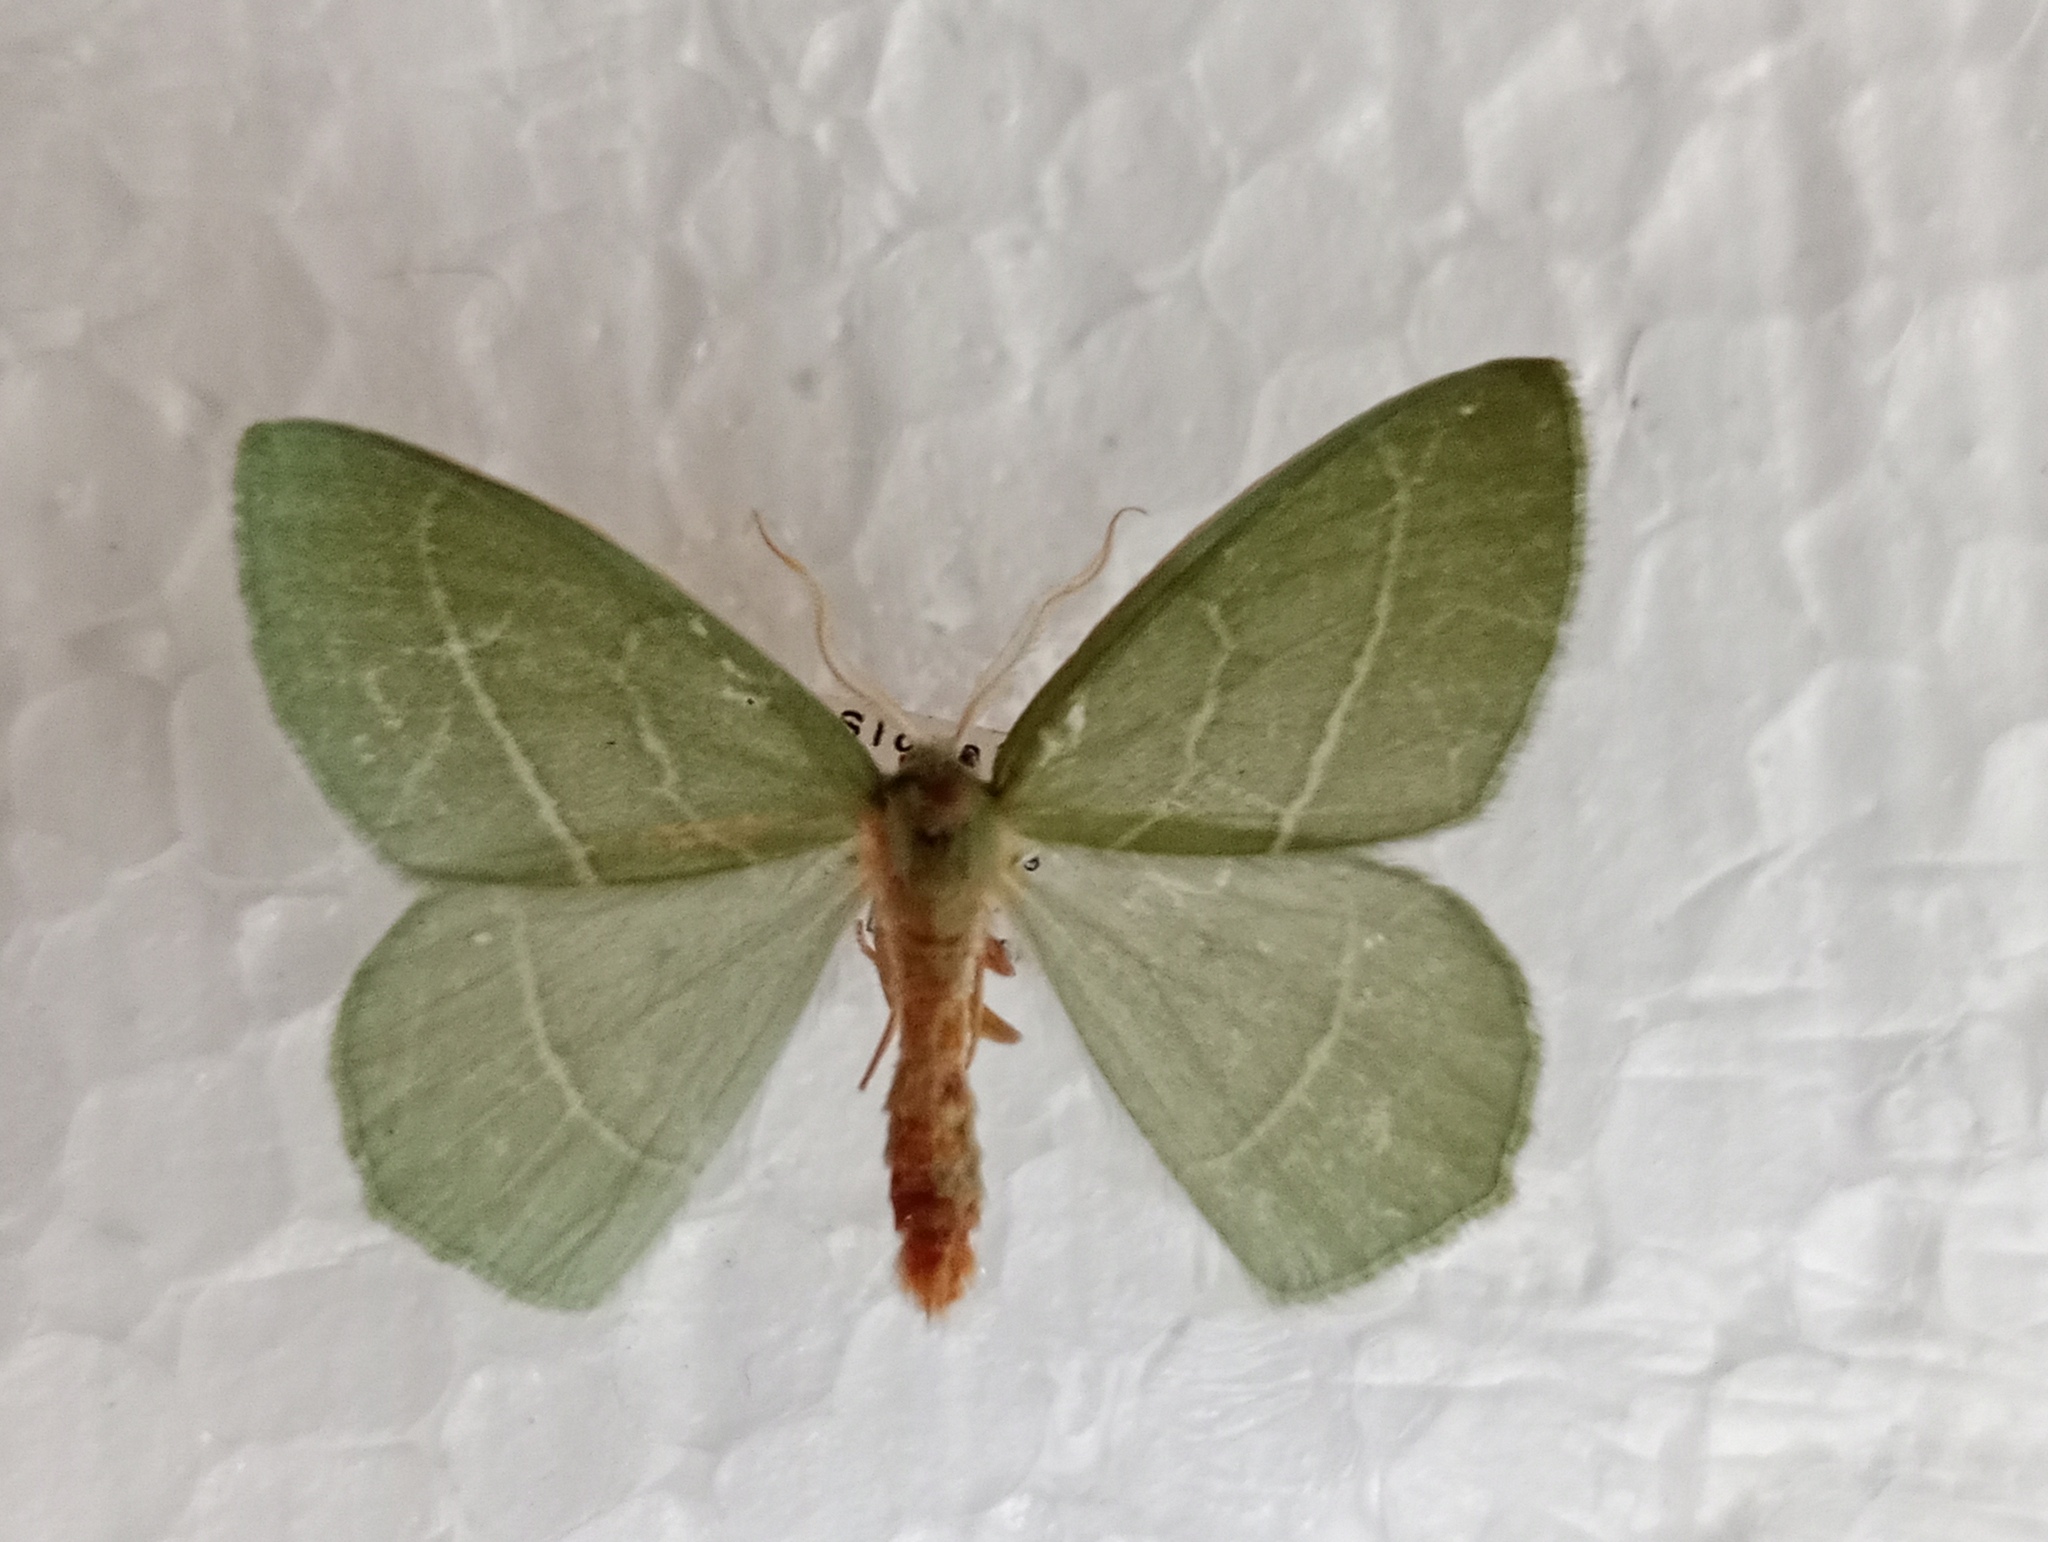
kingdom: Animalia
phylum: Arthropoda
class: Insecta
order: Lepidoptera
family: Geometridae
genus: Hemistola
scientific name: Hemistola chrysoprasaria
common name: Small emerald
